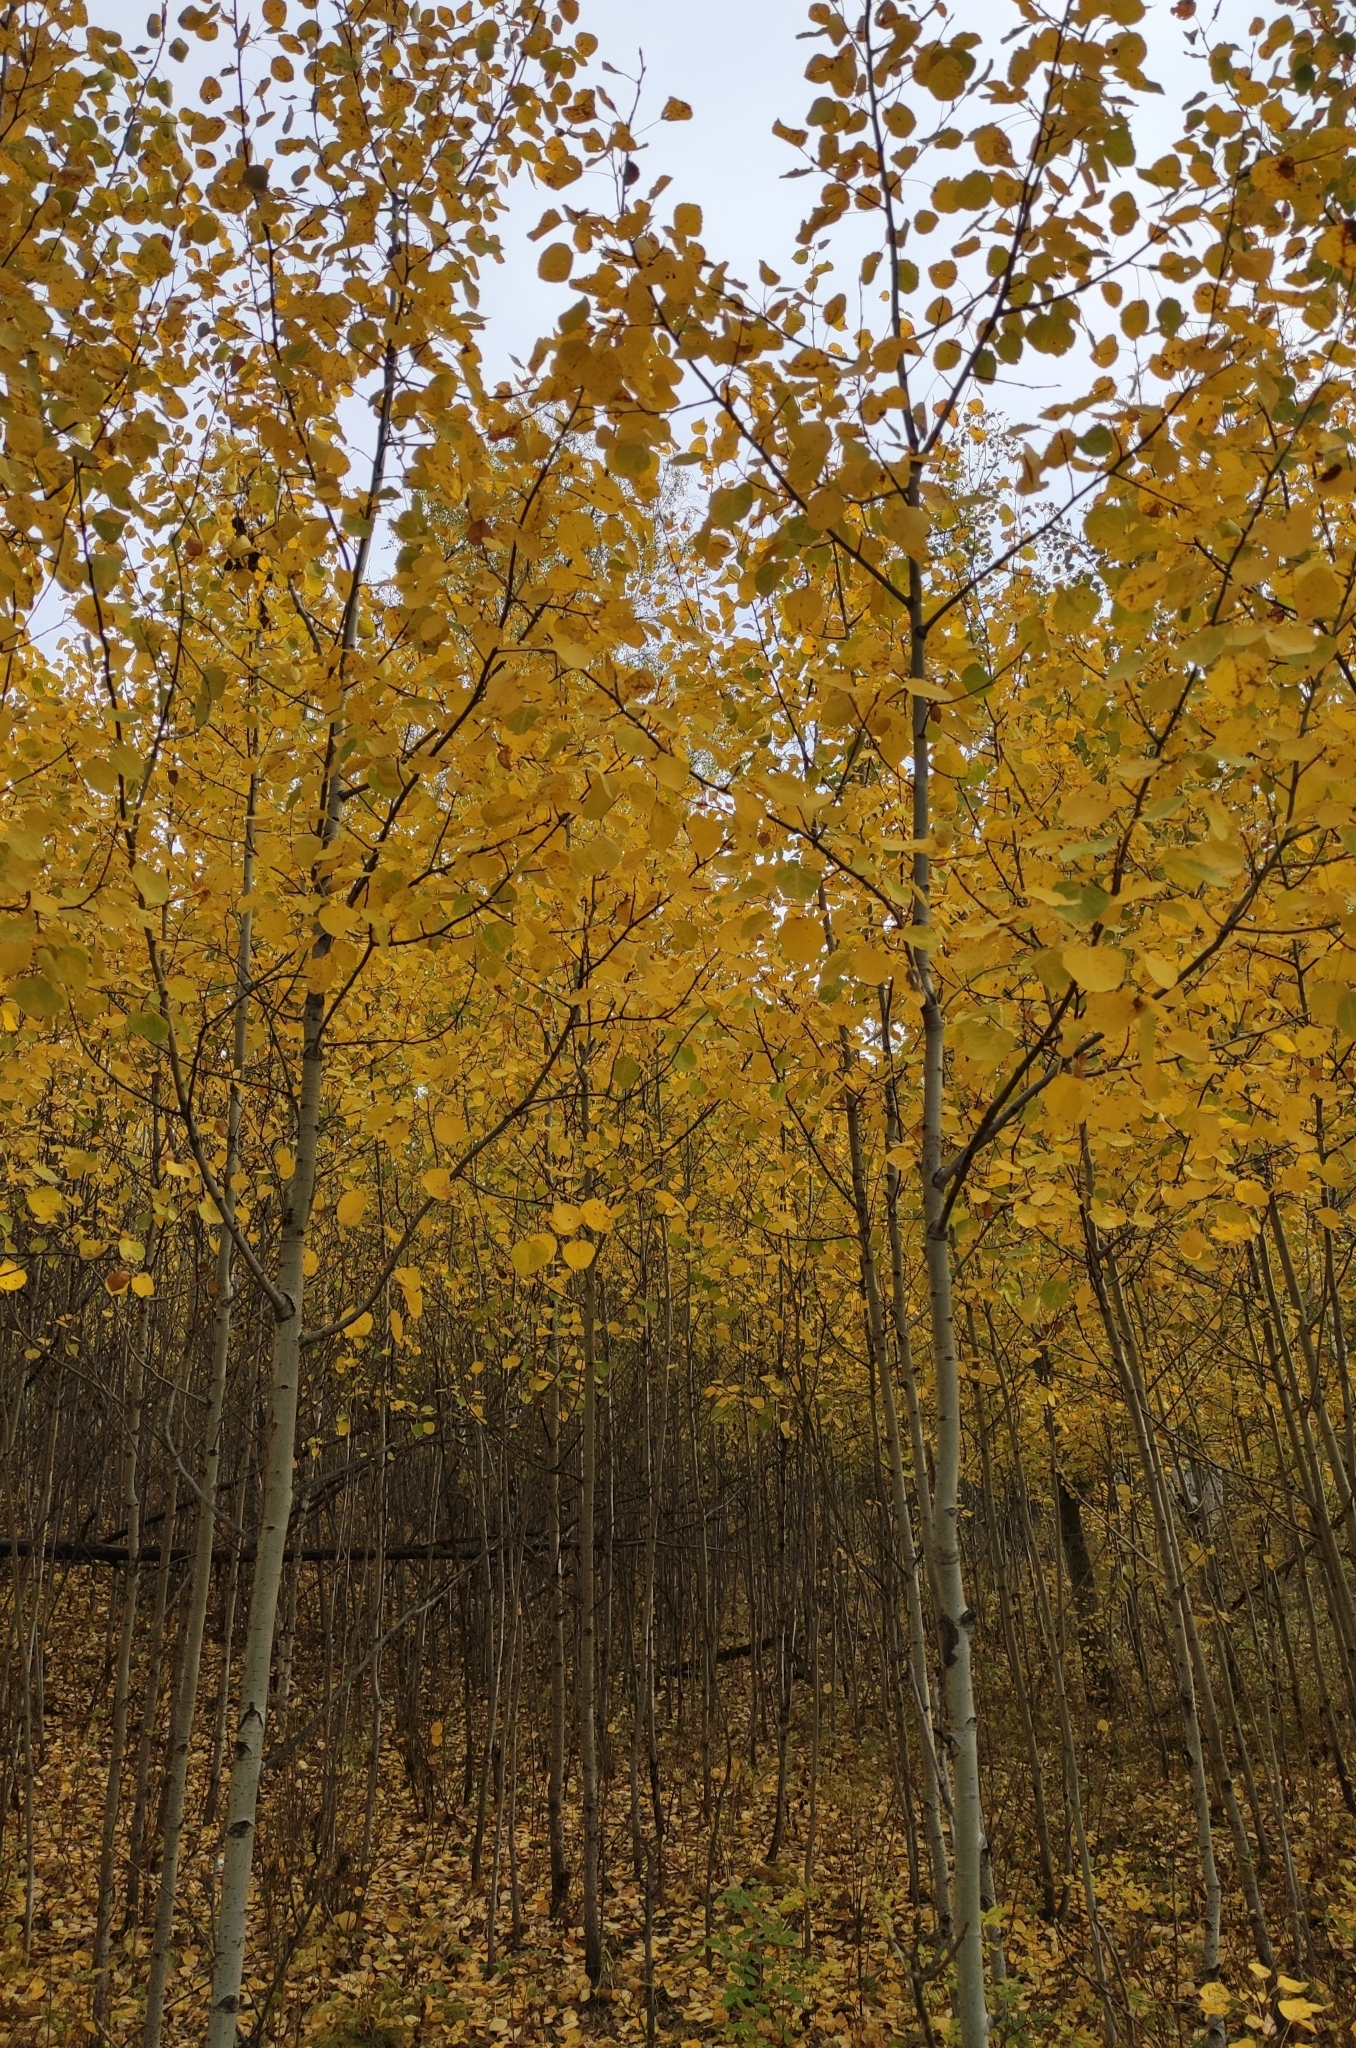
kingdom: Plantae
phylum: Tracheophyta
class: Magnoliopsida
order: Malpighiales
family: Salicaceae
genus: Populus
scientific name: Populus tremula
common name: European aspen
